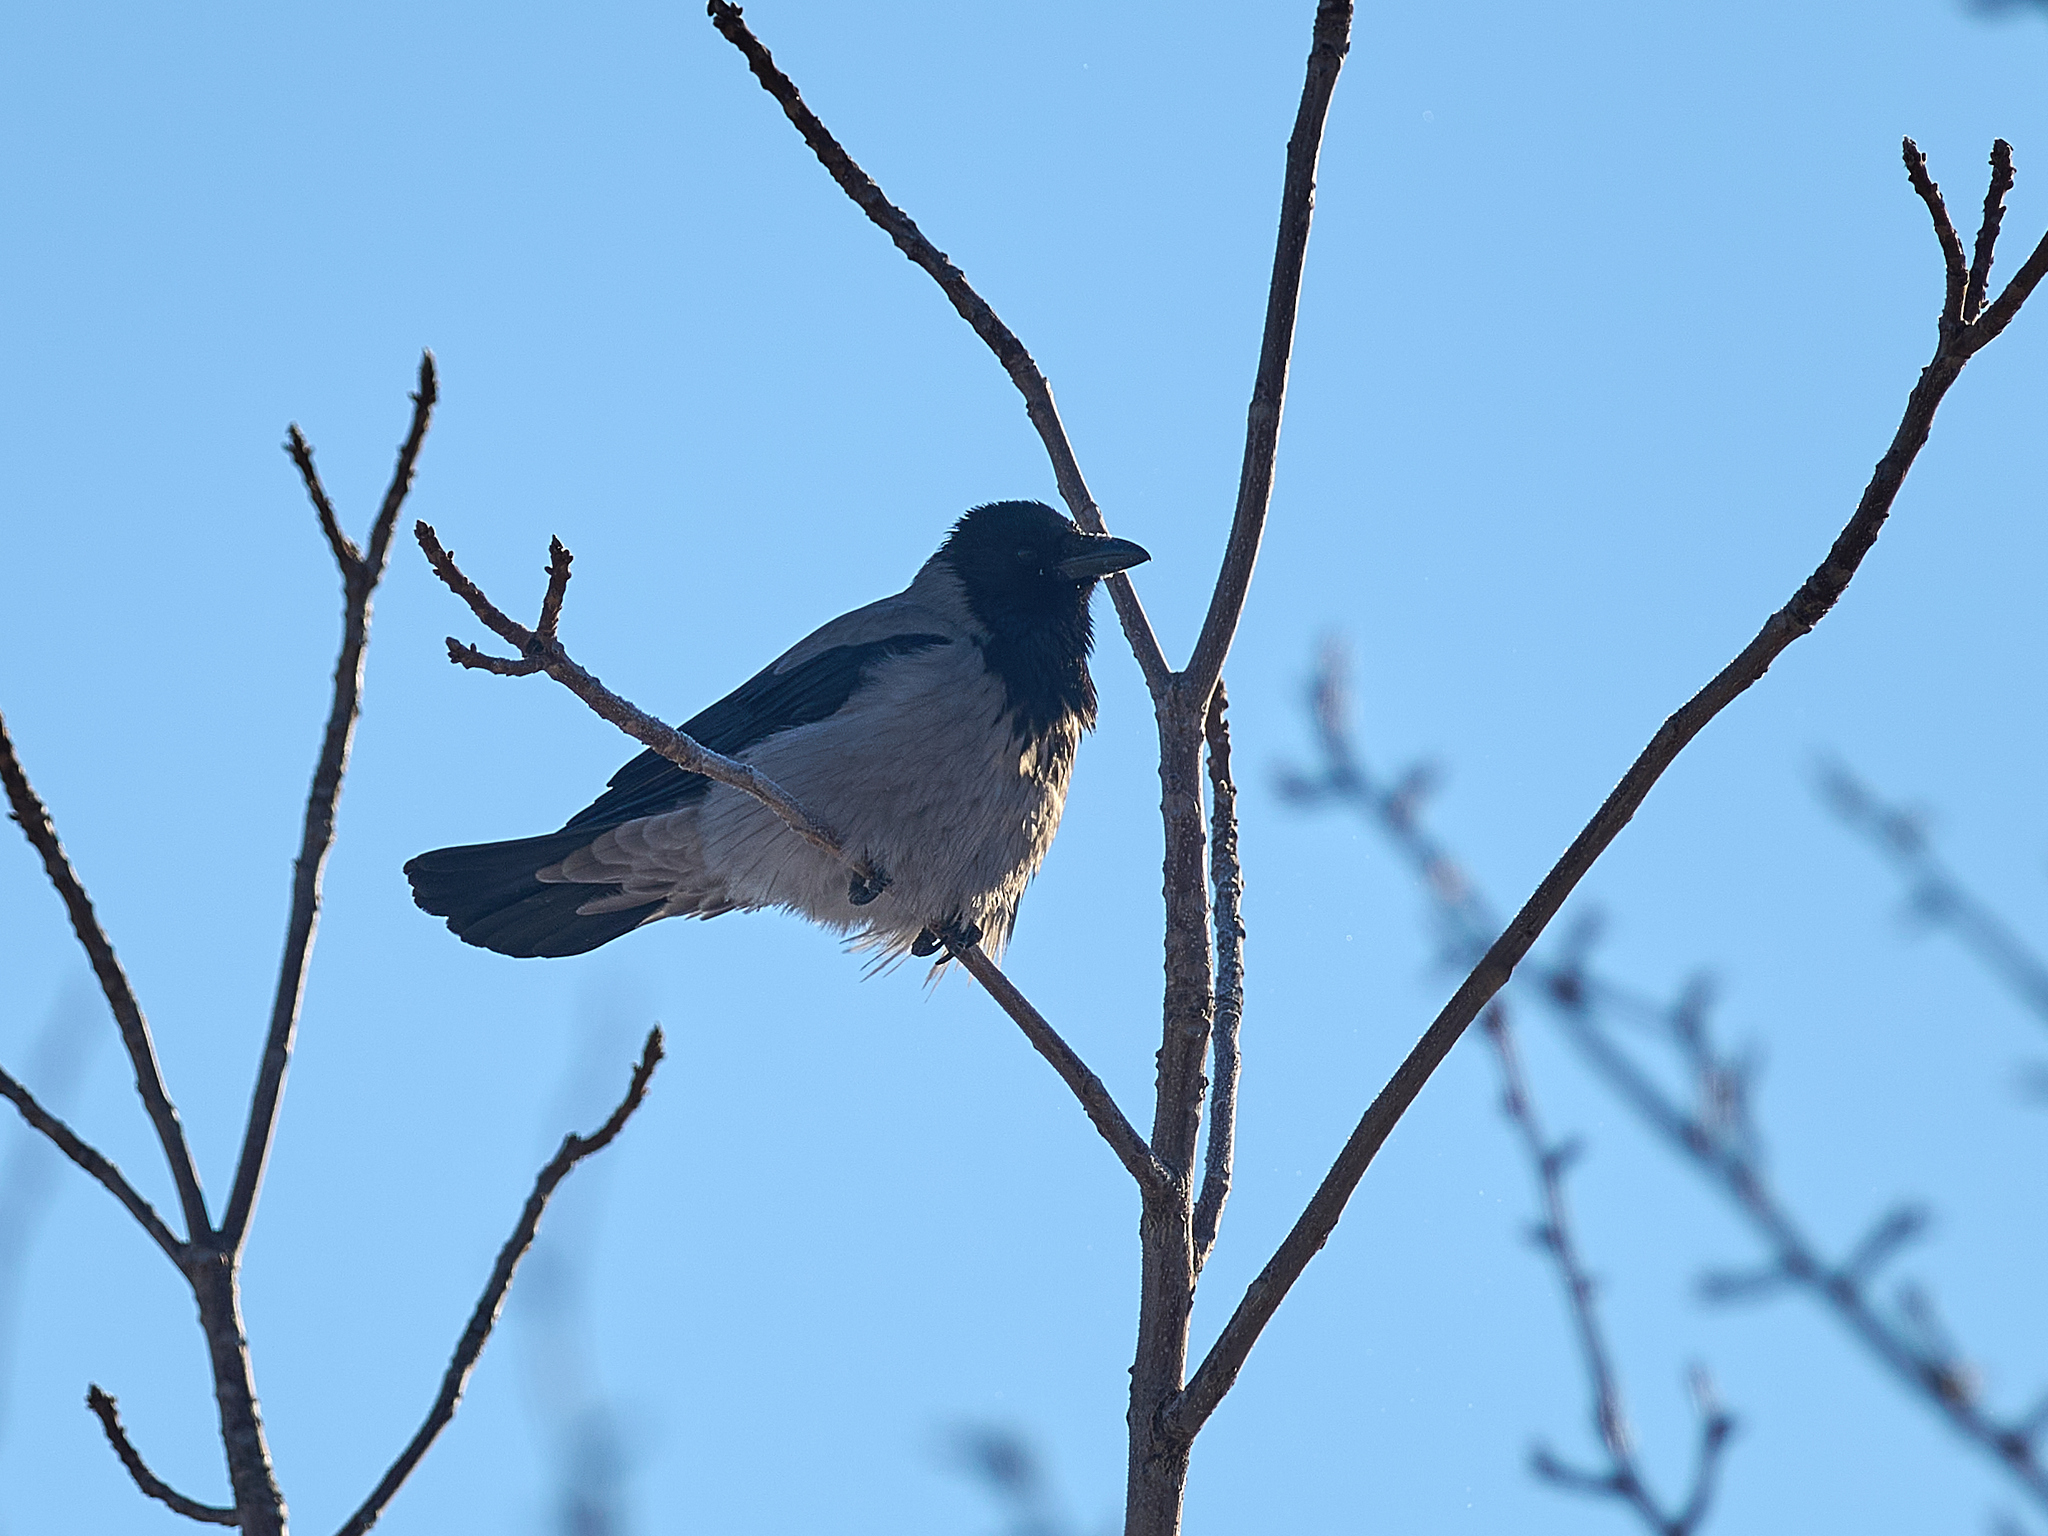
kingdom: Animalia
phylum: Chordata
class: Aves
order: Passeriformes
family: Corvidae
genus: Corvus
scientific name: Corvus cornix
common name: Hooded crow
